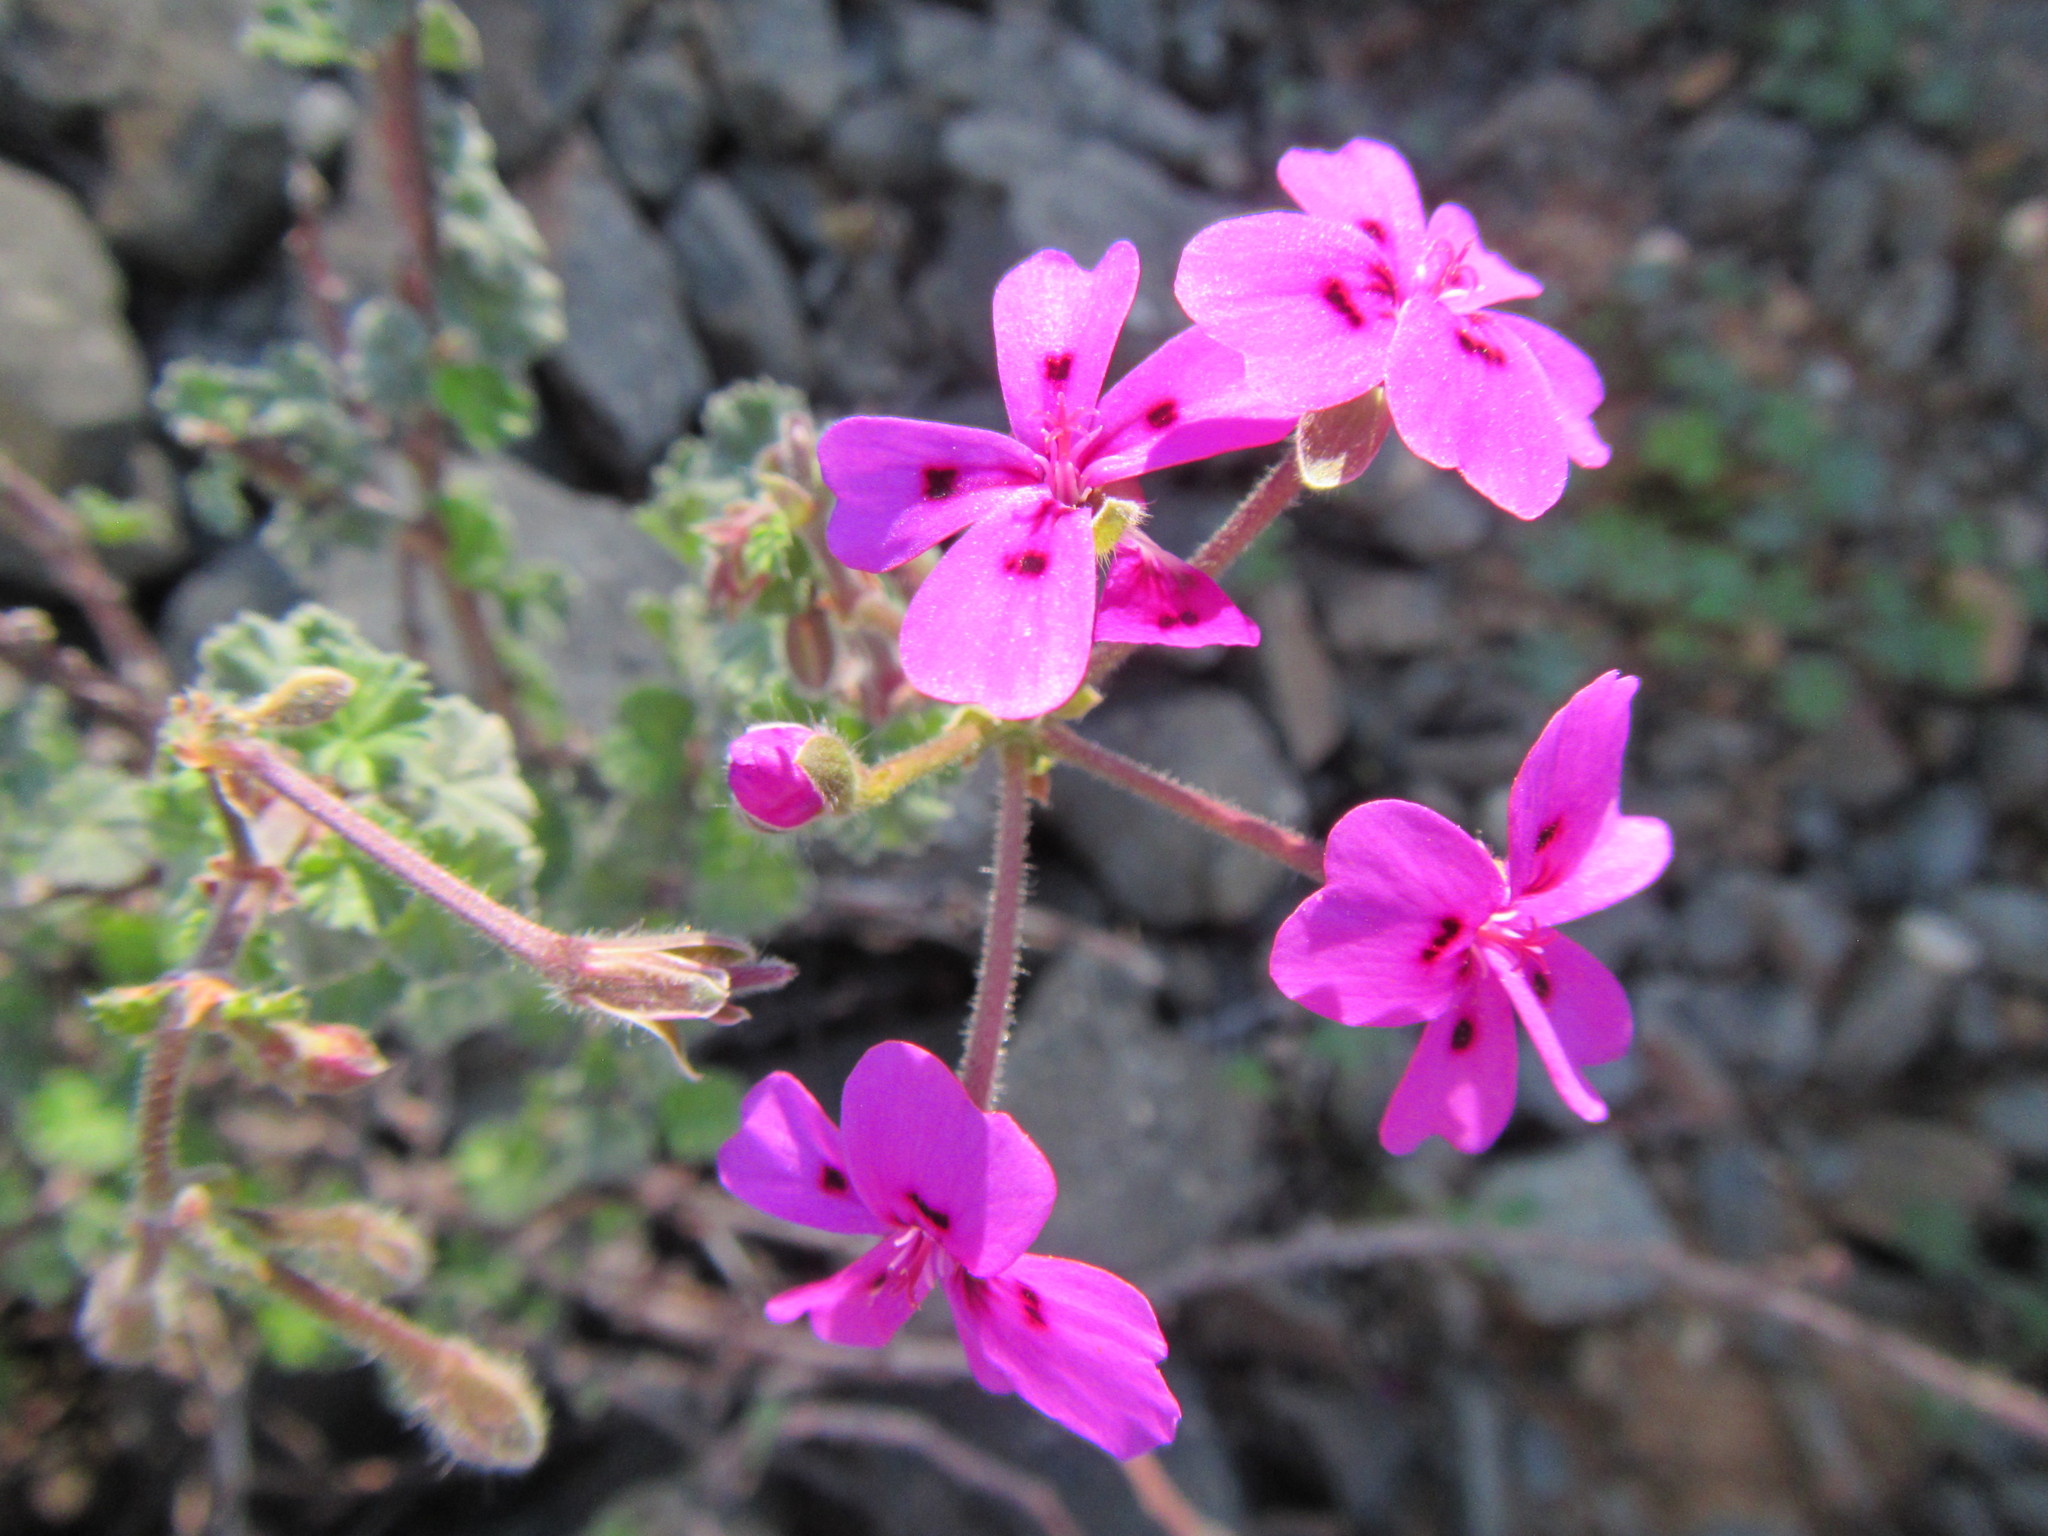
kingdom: Plantae
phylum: Tracheophyta
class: Magnoliopsida
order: Geraniales
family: Geraniaceae
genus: Pelargonium
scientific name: Pelargonium magenteum
